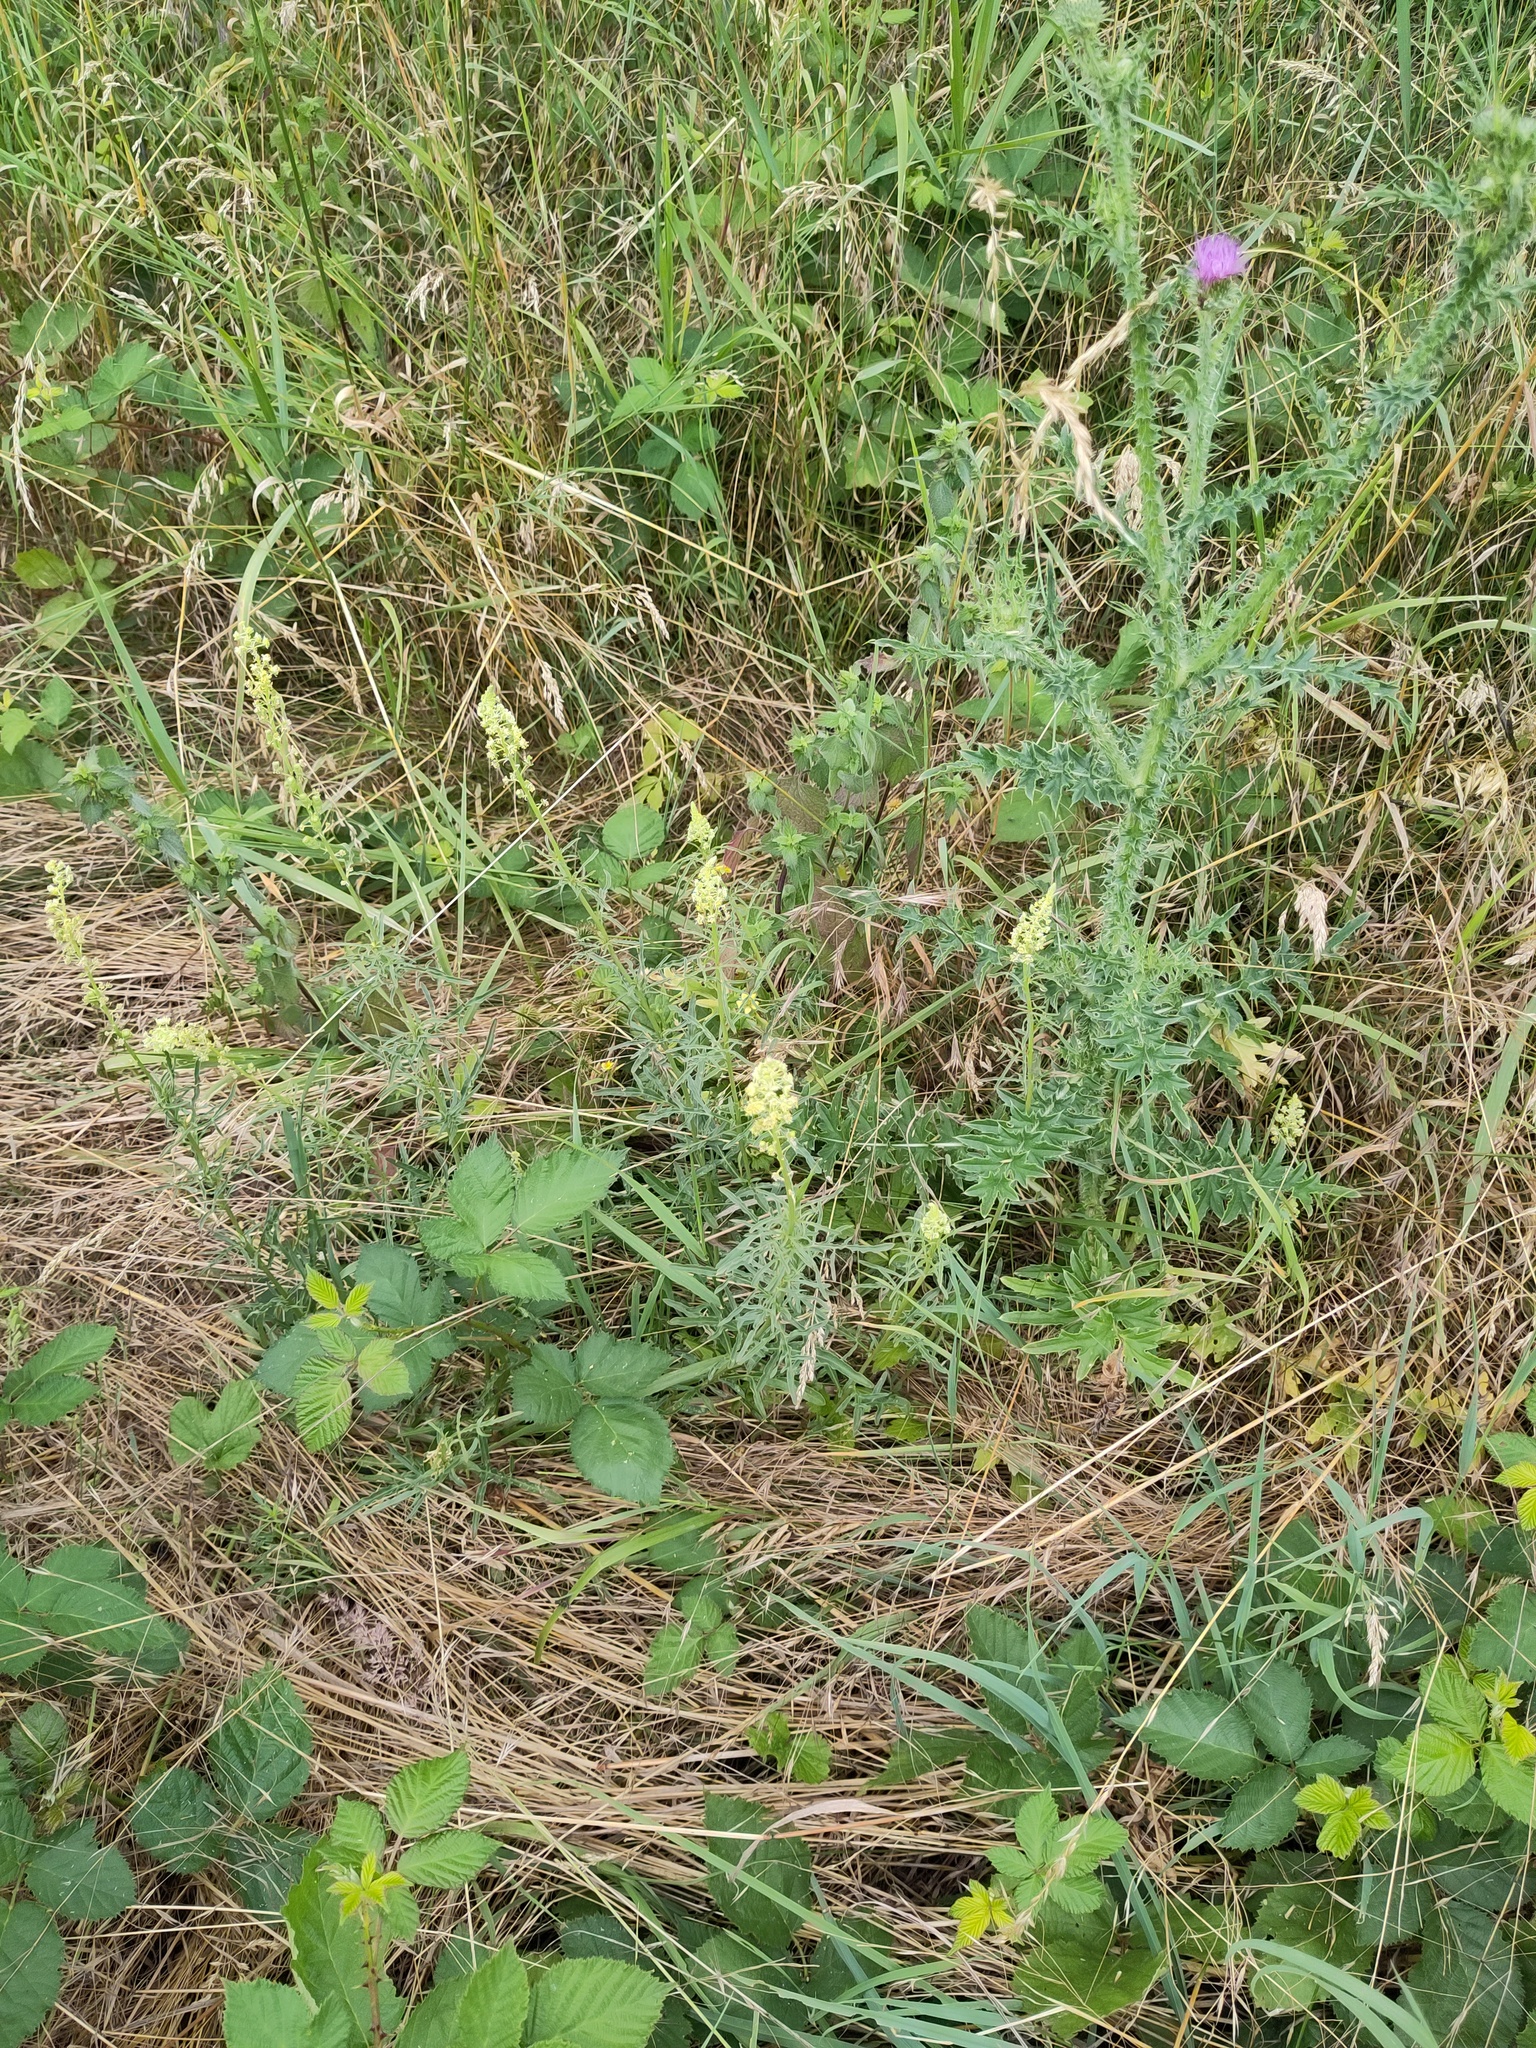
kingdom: Plantae
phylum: Tracheophyta
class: Magnoliopsida
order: Asterales
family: Asteraceae
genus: Carduus
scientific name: Carduus acanthoides
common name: Plumeless thistle
